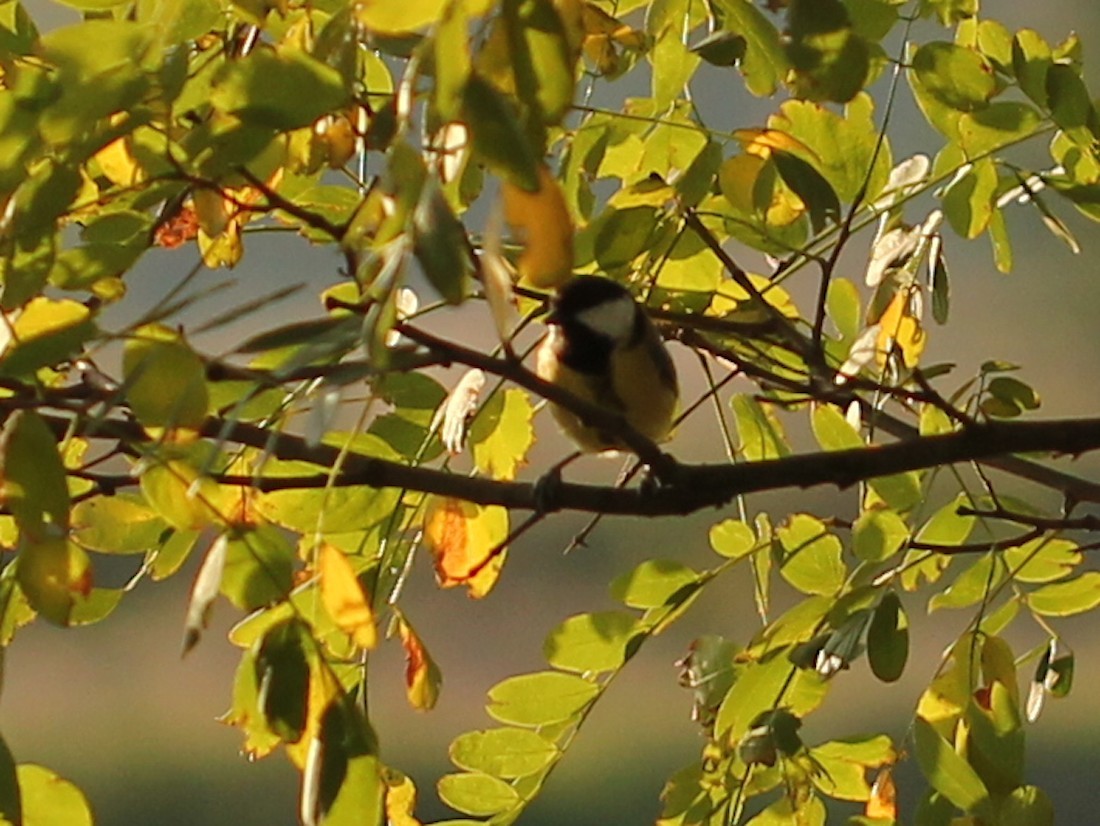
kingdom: Animalia
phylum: Chordata
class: Aves
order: Passeriformes
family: Paridae
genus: Parus
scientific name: Parus major
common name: Great tit
